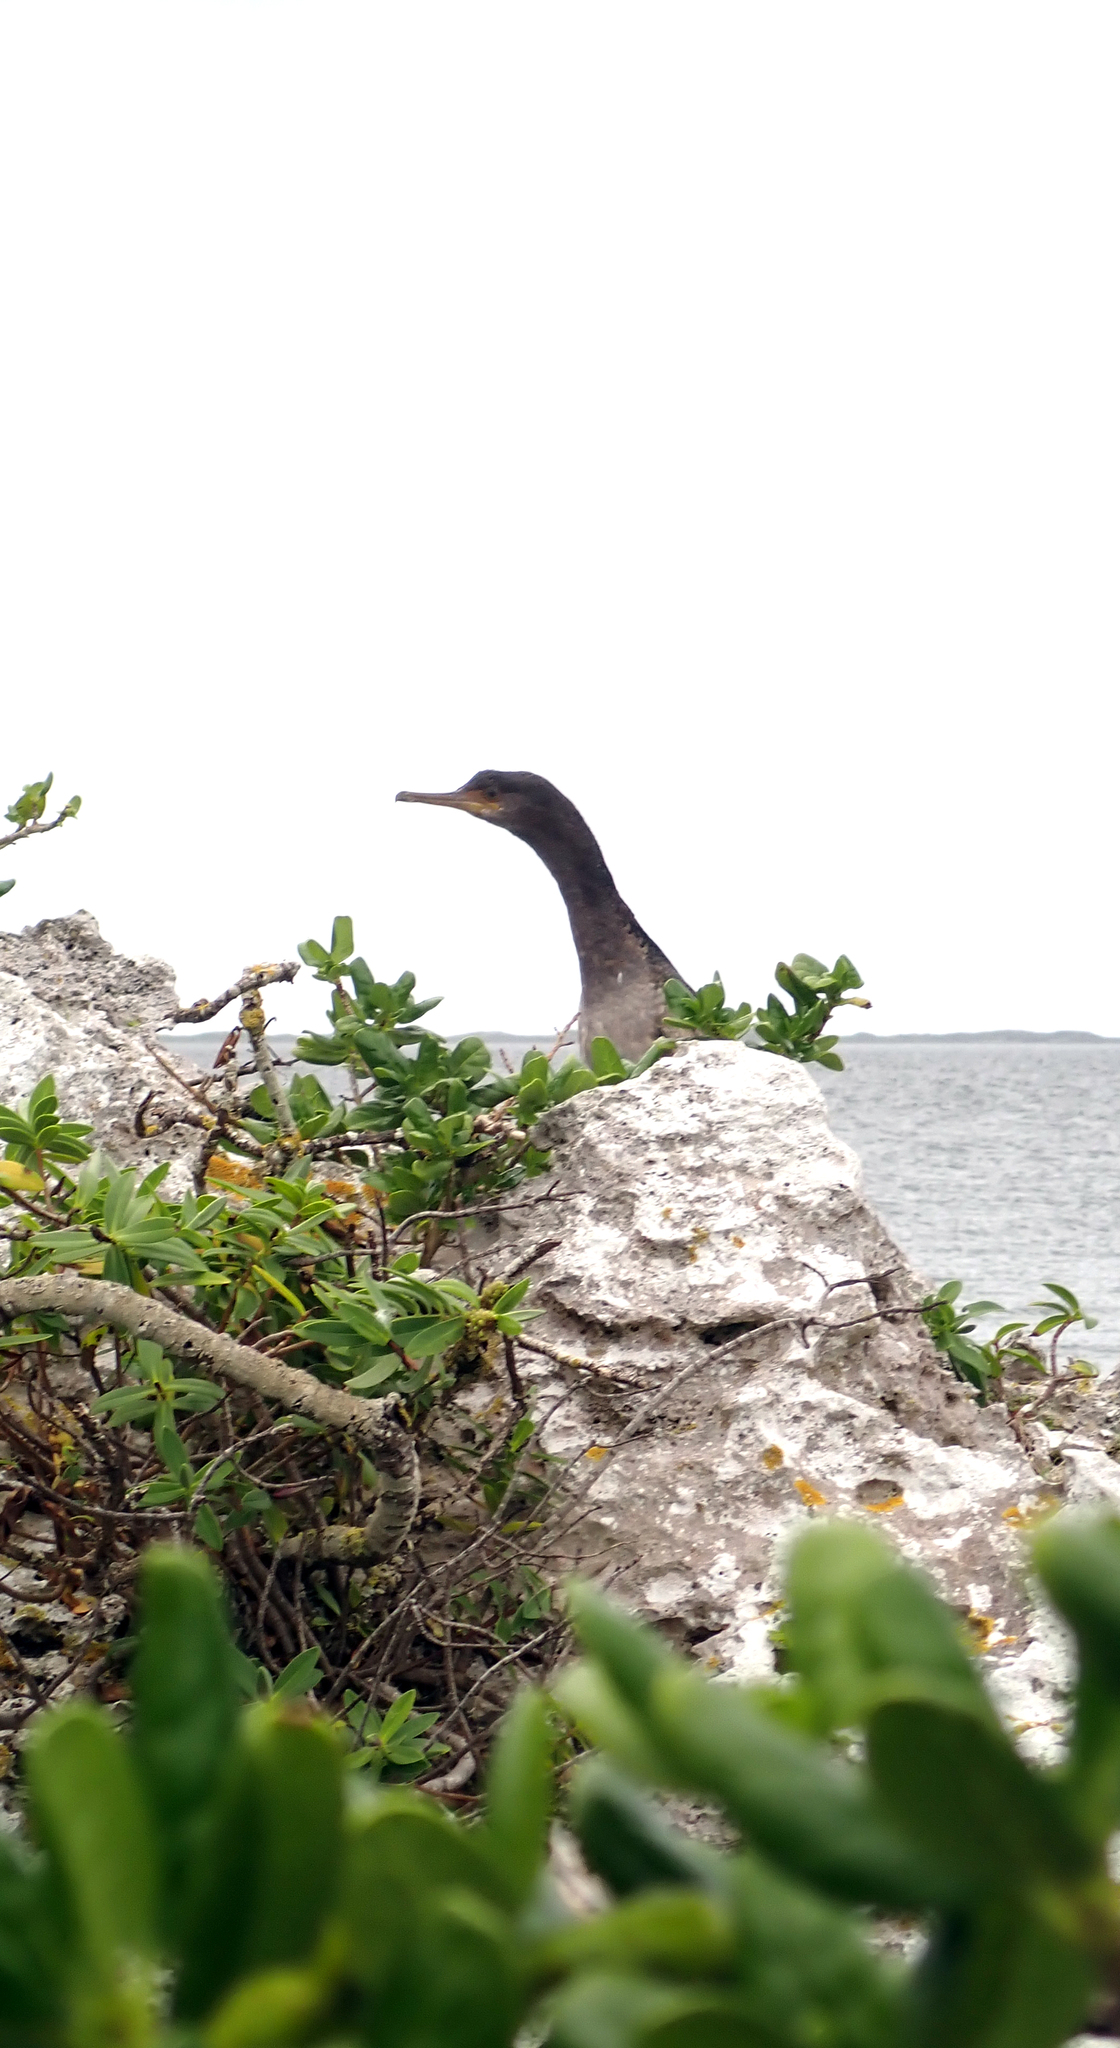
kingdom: Animalia
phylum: Chordata
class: Aves
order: Suliformes
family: Phalacrocoracidae
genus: Phalacrocorax
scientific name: Phalacrocorax featherstoni
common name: Pitt shag
